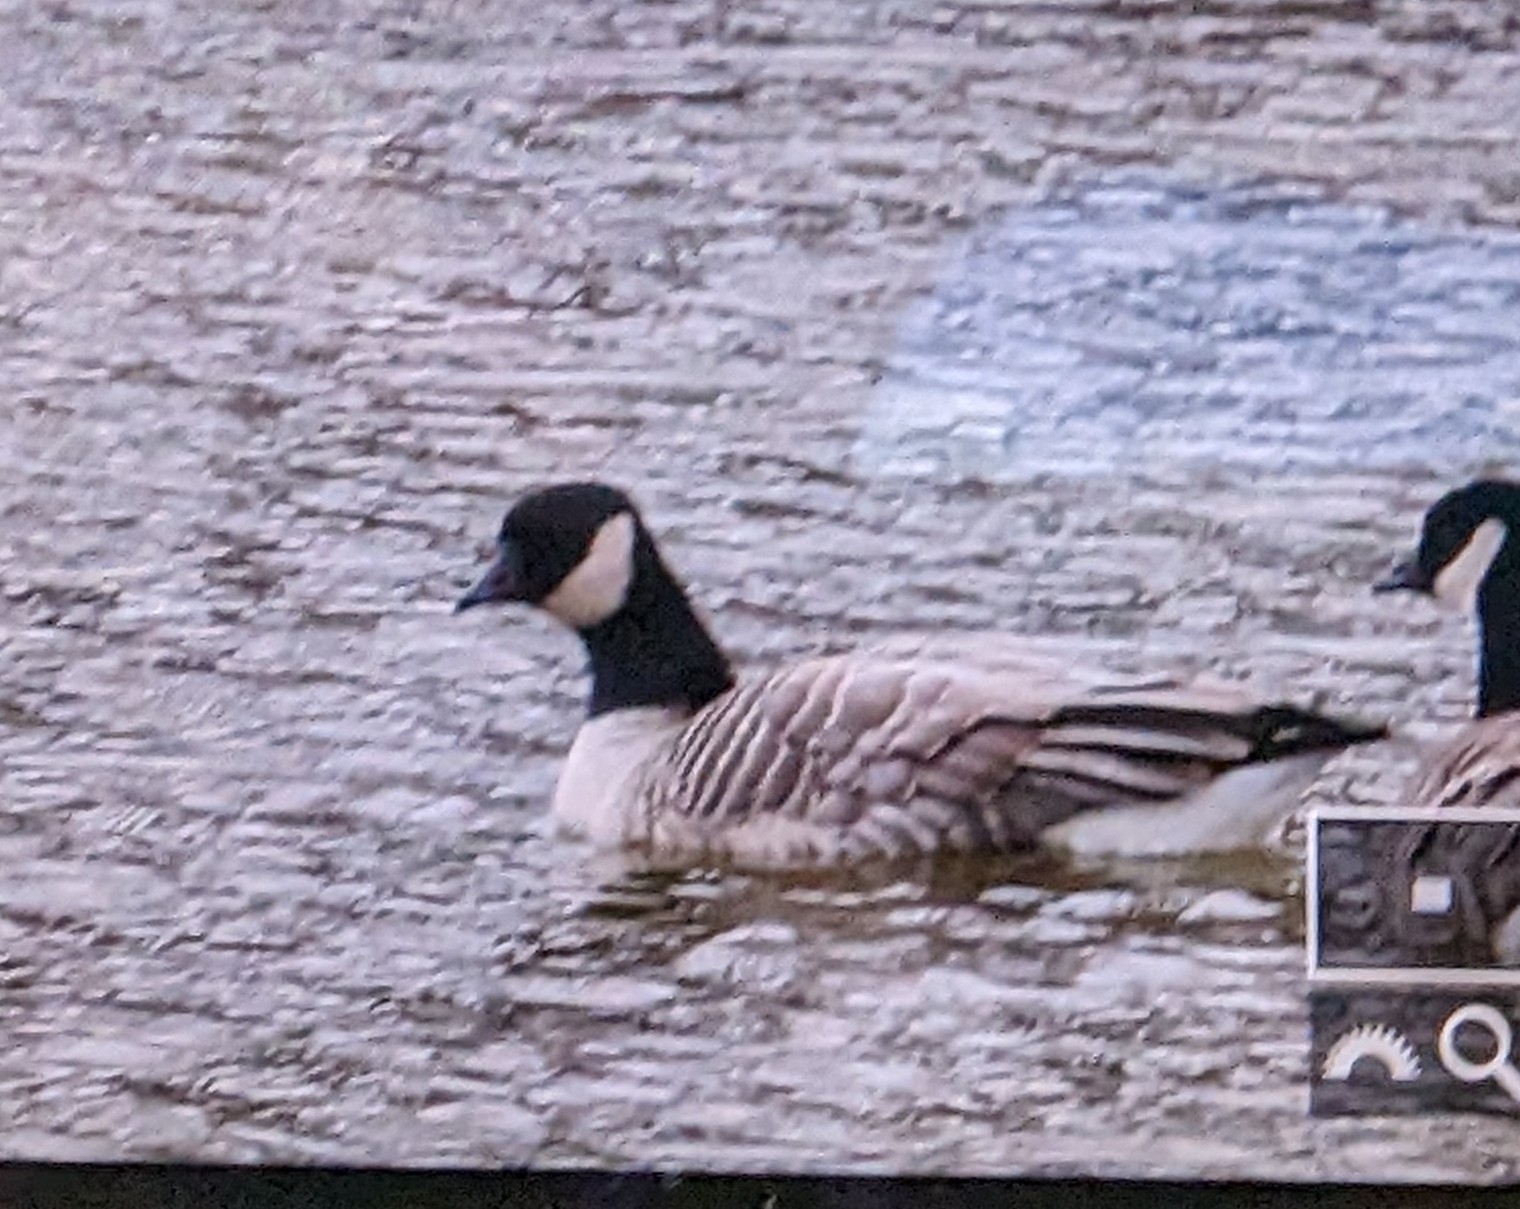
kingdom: Animalia
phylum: Chordata
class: Aves
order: Anseriformes
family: Anatidae
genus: Branta
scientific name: Branta hutchinsii
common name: Cackling goose
